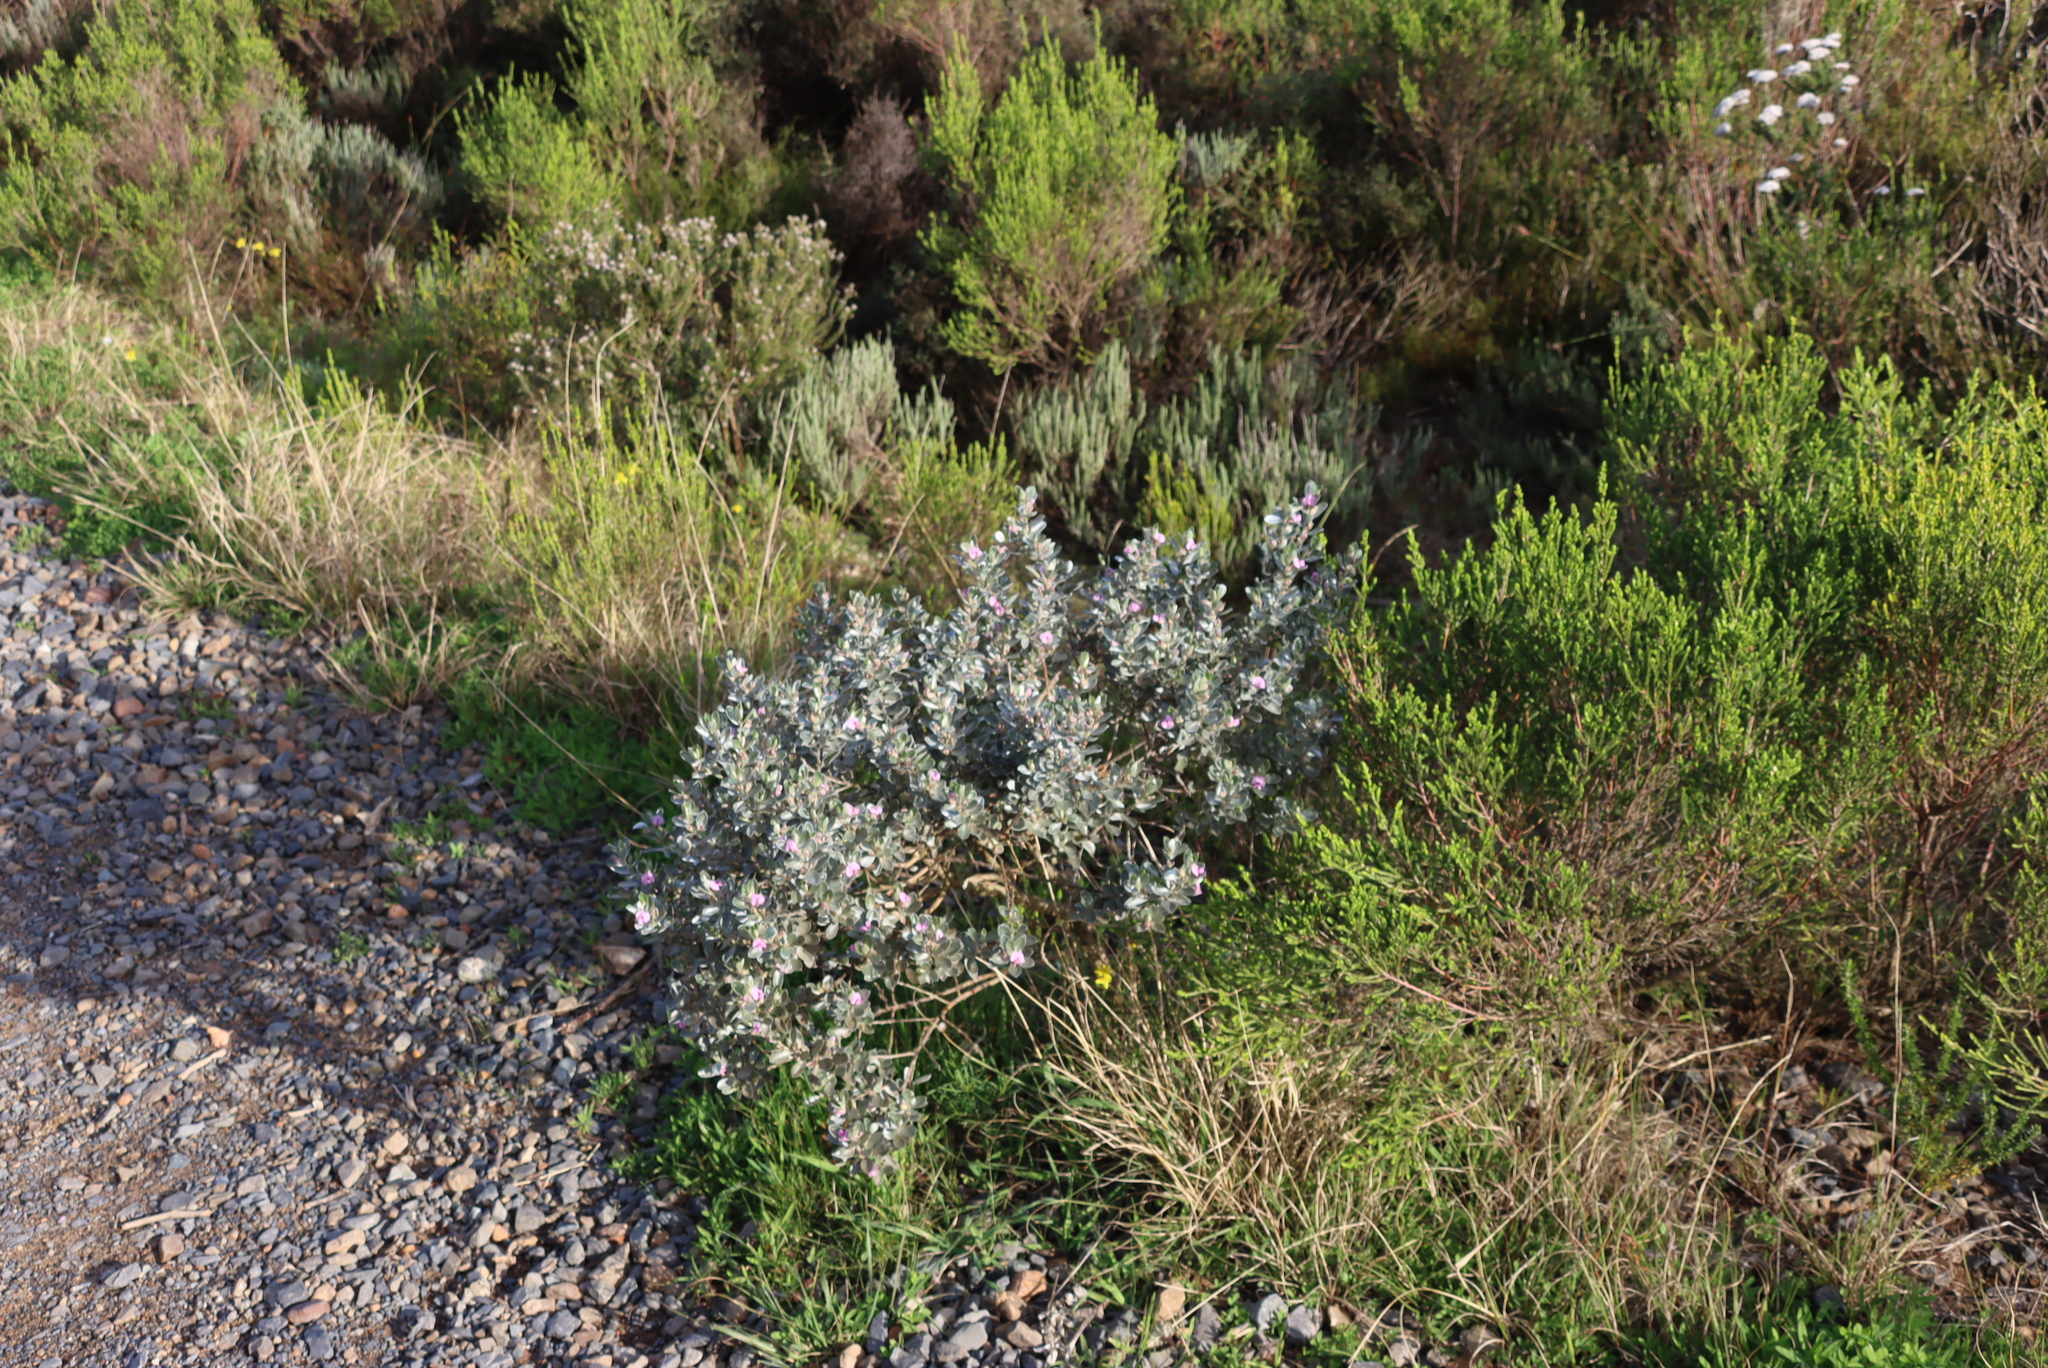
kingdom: Plantae
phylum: Tracheophyta
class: Magnoliopsida
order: Fabales
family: Fabaceae
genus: Podalyria
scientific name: Podalyria sericea
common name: Silver podalyria
